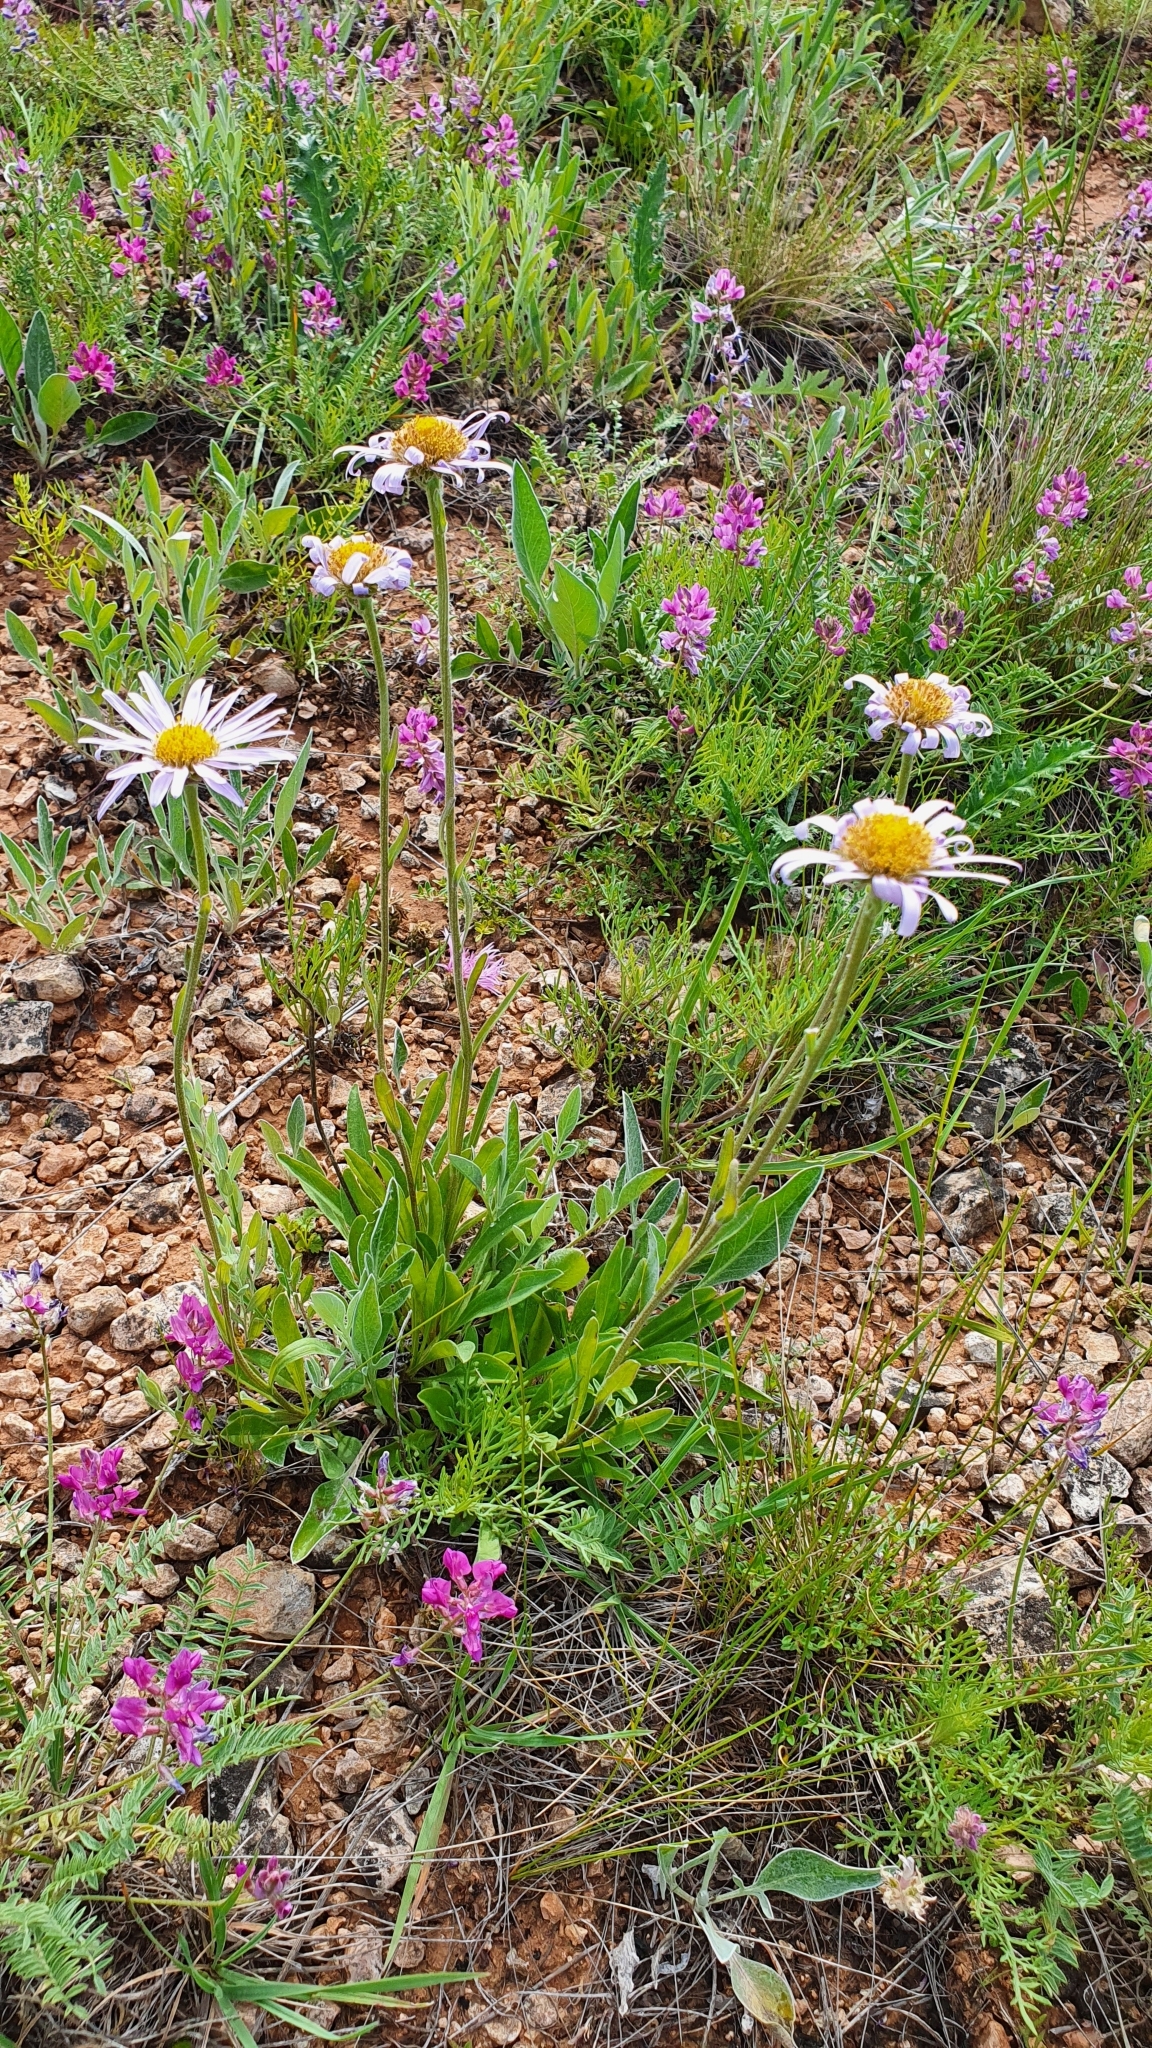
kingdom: Plantae
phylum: Tracheophyta
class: Magnoliopsida
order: Asterales
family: Asteraceae
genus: Aster
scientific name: Aster alpinus
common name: Alpine aster
